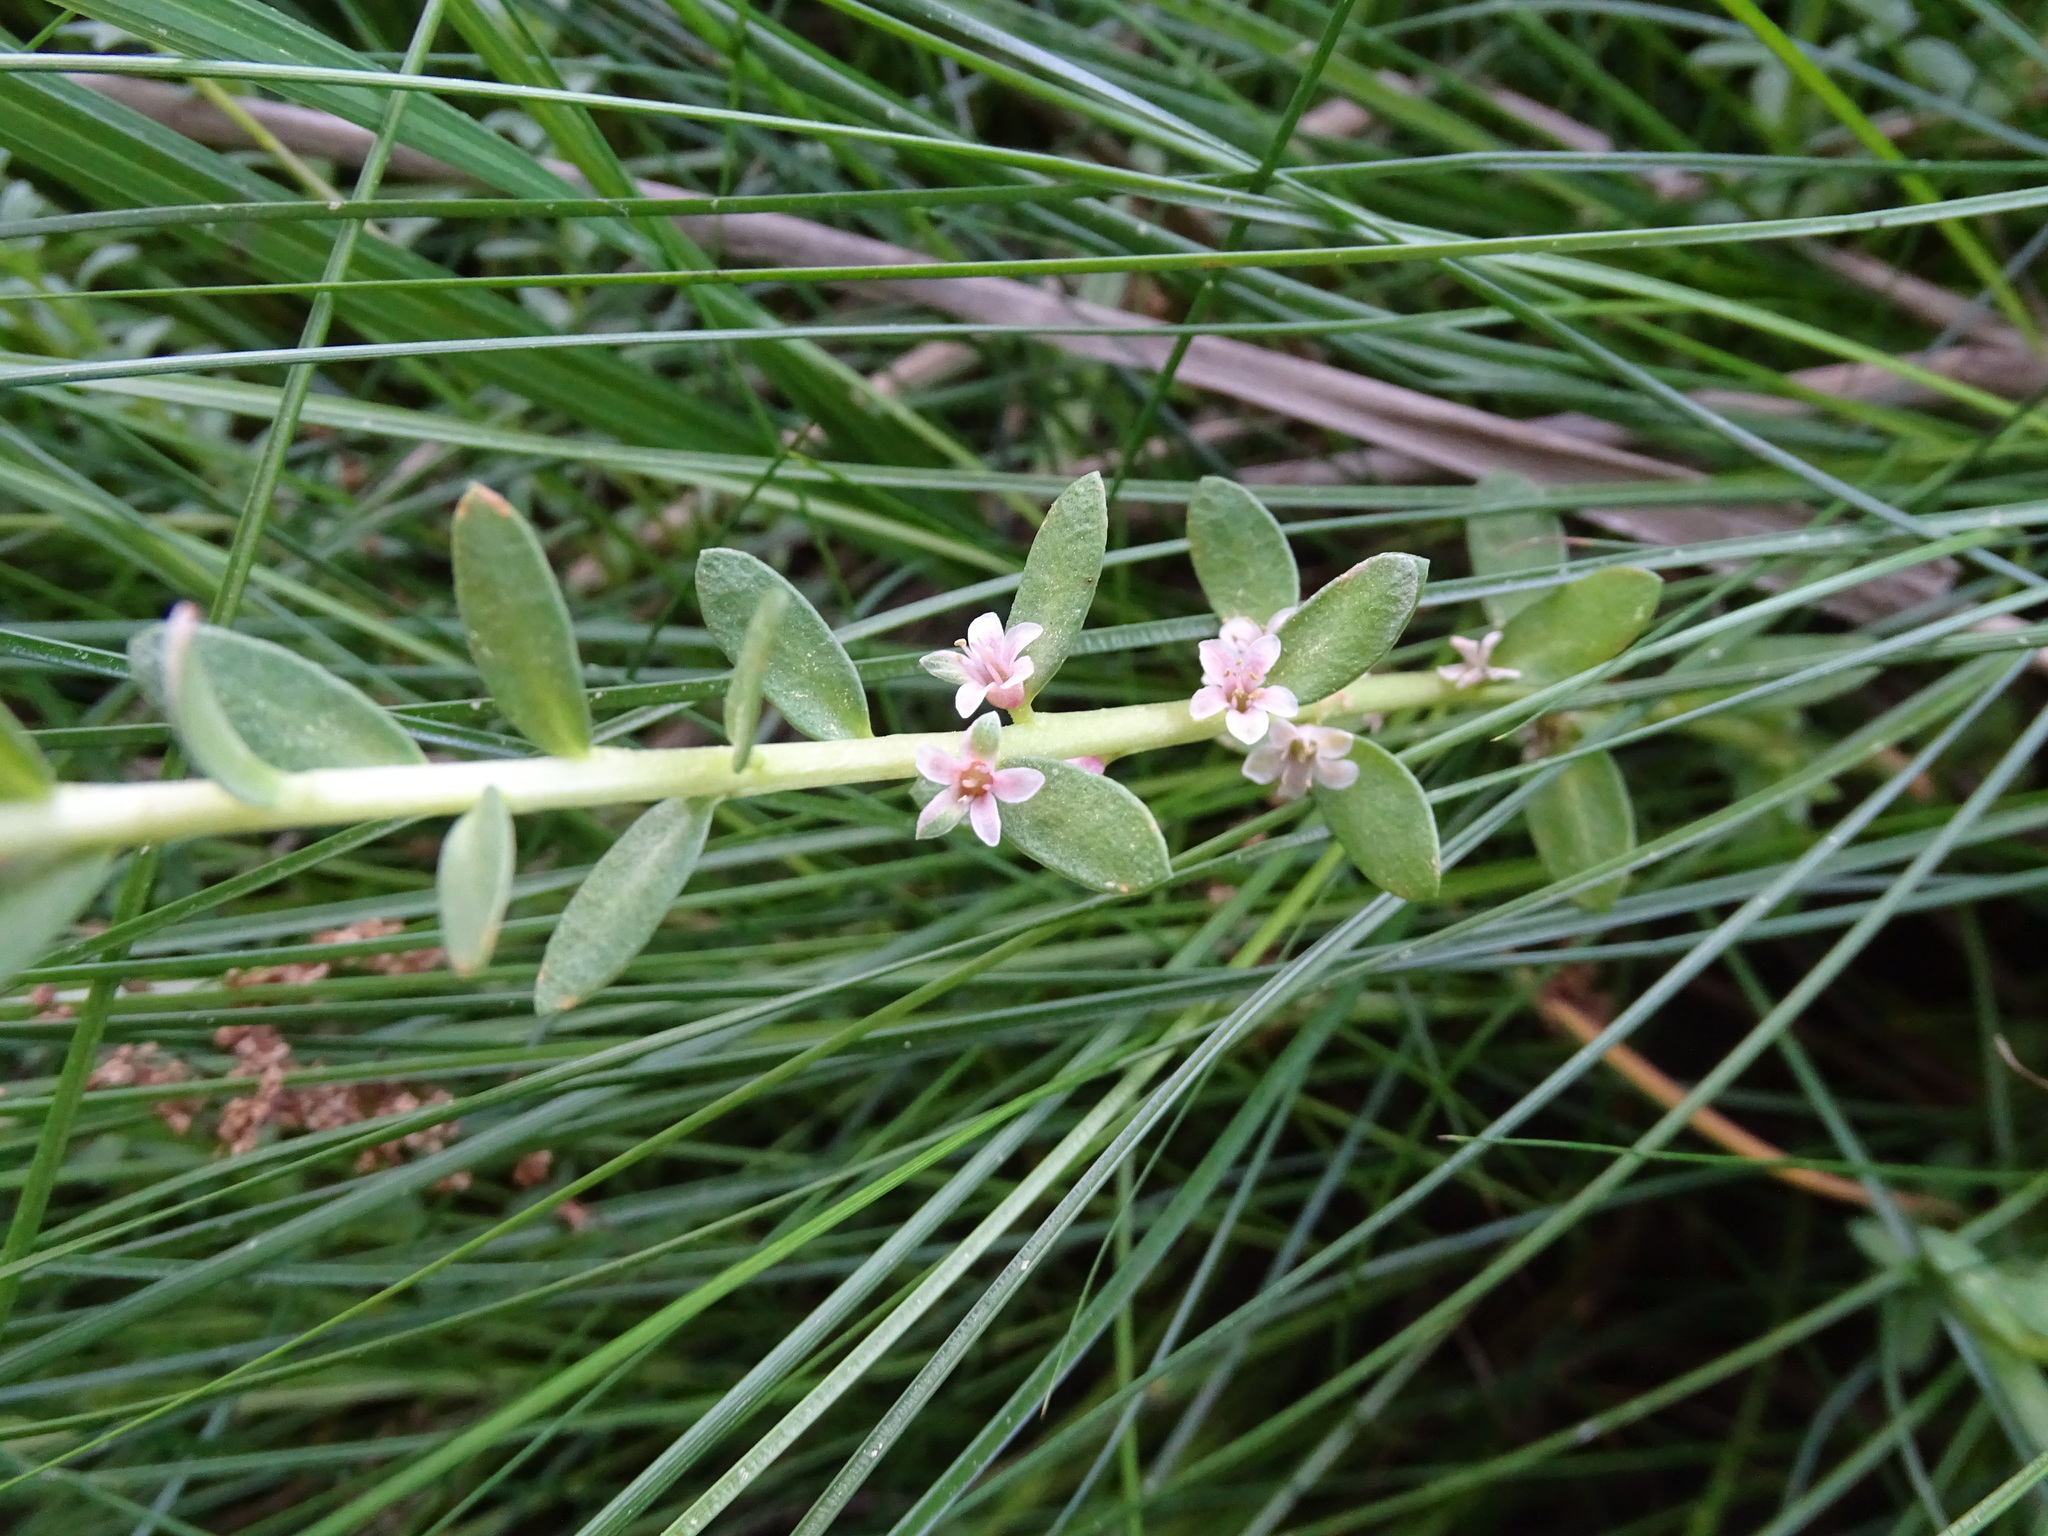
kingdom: Plantae
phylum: Tracheophyta
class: Magnoliopsida
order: Ericales
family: Primulaceae
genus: Lysimachia
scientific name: Lysimachia maritima
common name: Sea milkwort
